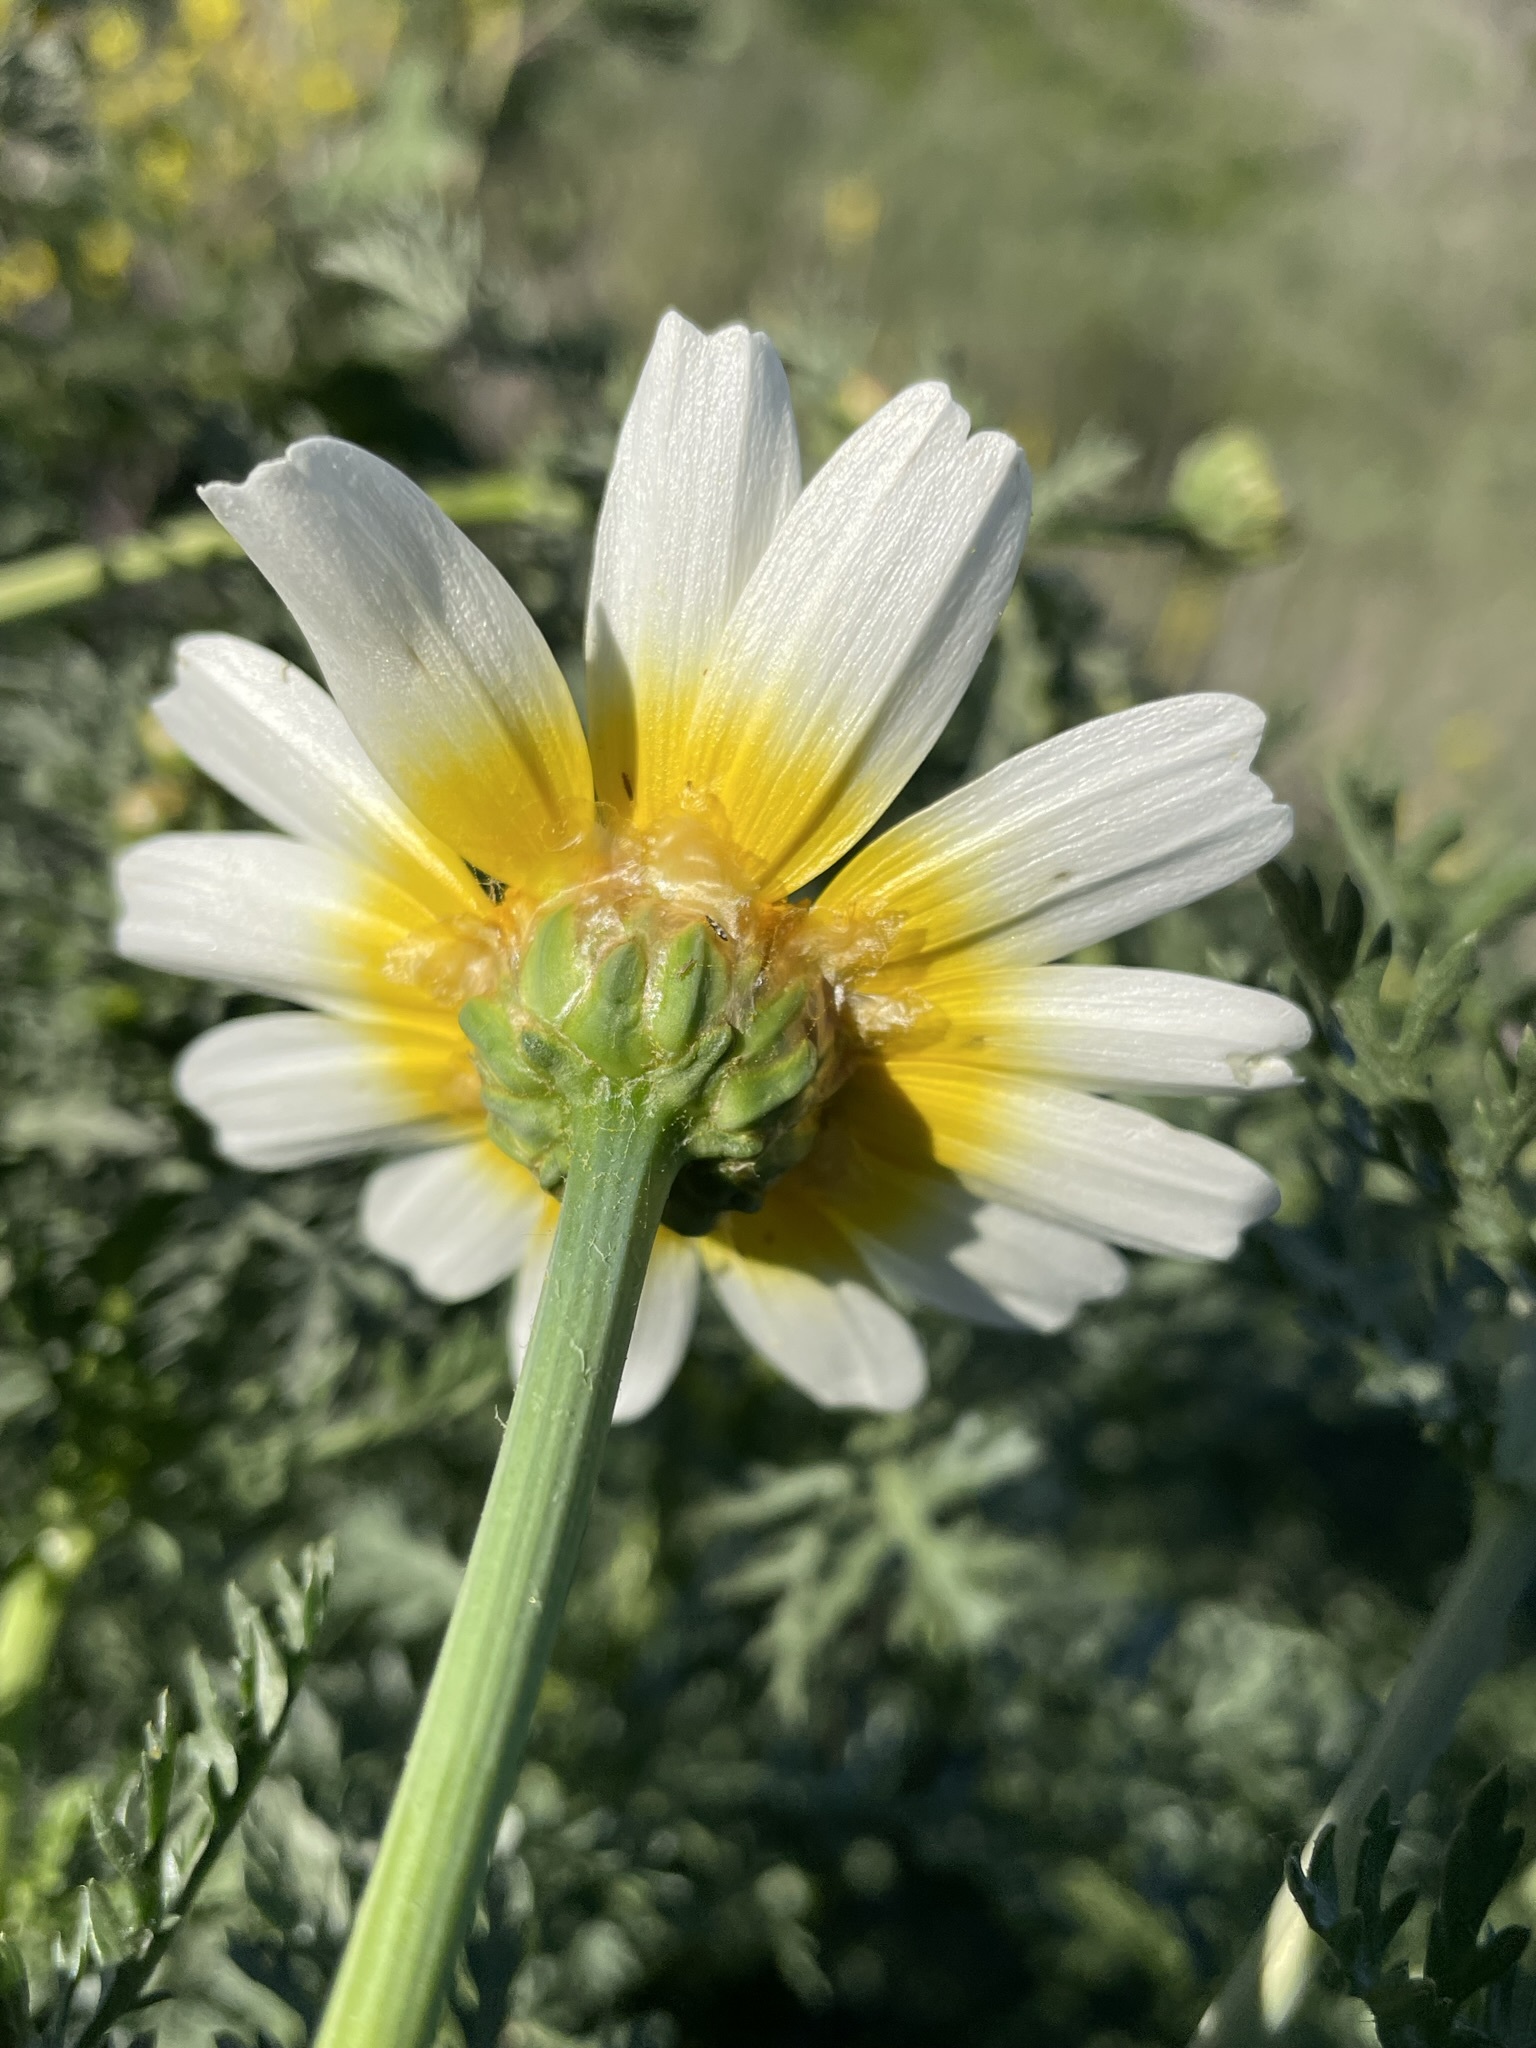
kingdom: Plantae
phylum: Tracheophyta
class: Magnoliopsida
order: Asterales
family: Asteraceae
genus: Glebionis
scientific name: Glebionis coronaria
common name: Crowndaisy
